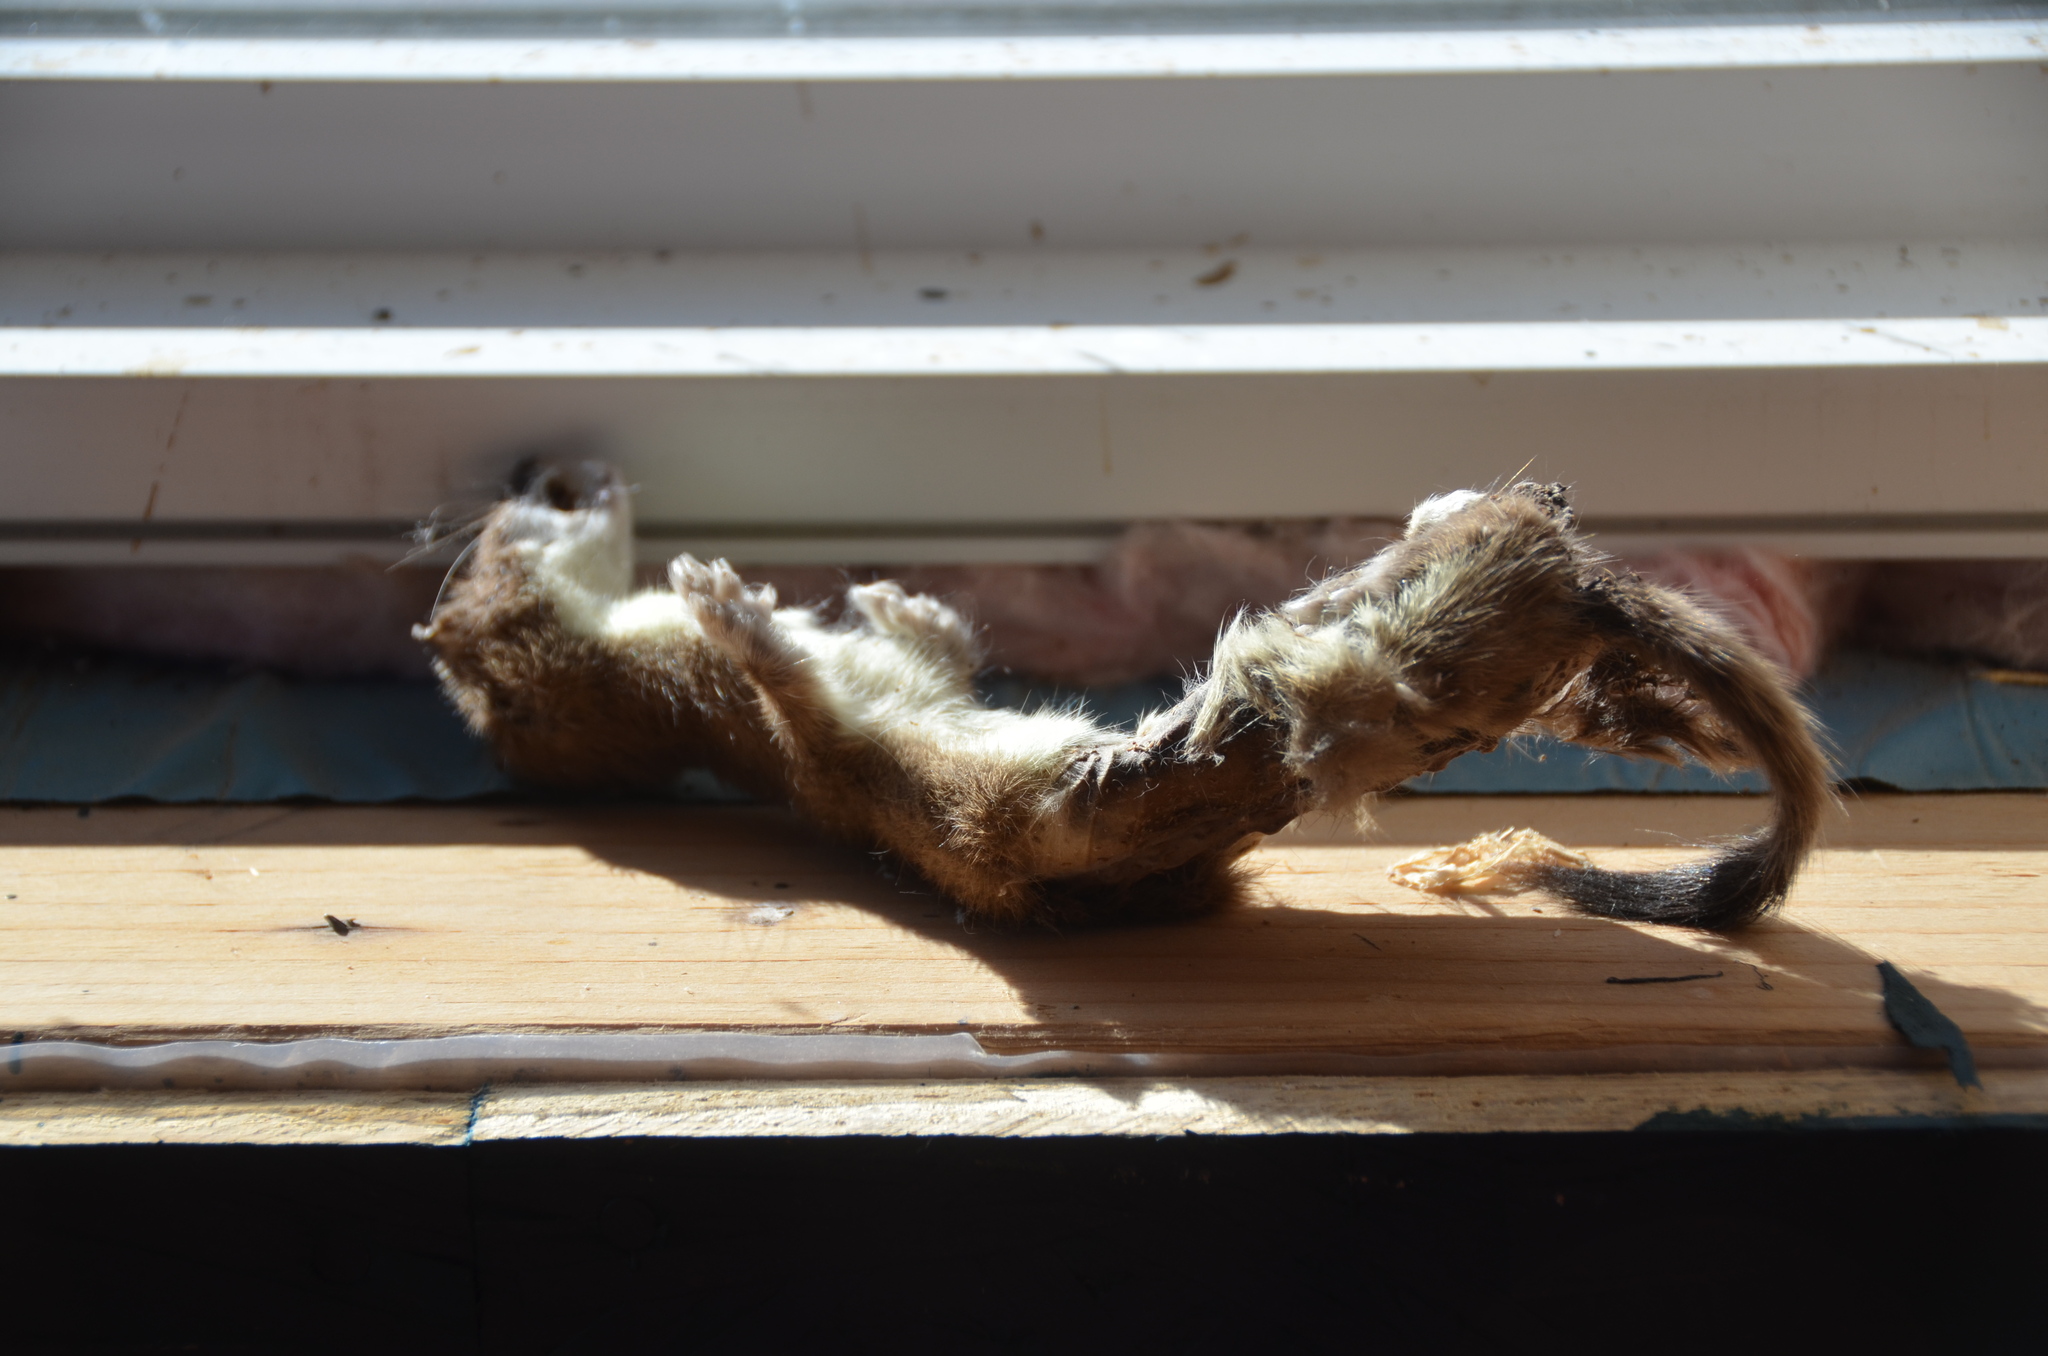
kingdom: Animalia
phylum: Chordata
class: Mammalia
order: Carnivora
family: Mustelidae
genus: Mustela
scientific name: Mustela erminea
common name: Stoat
